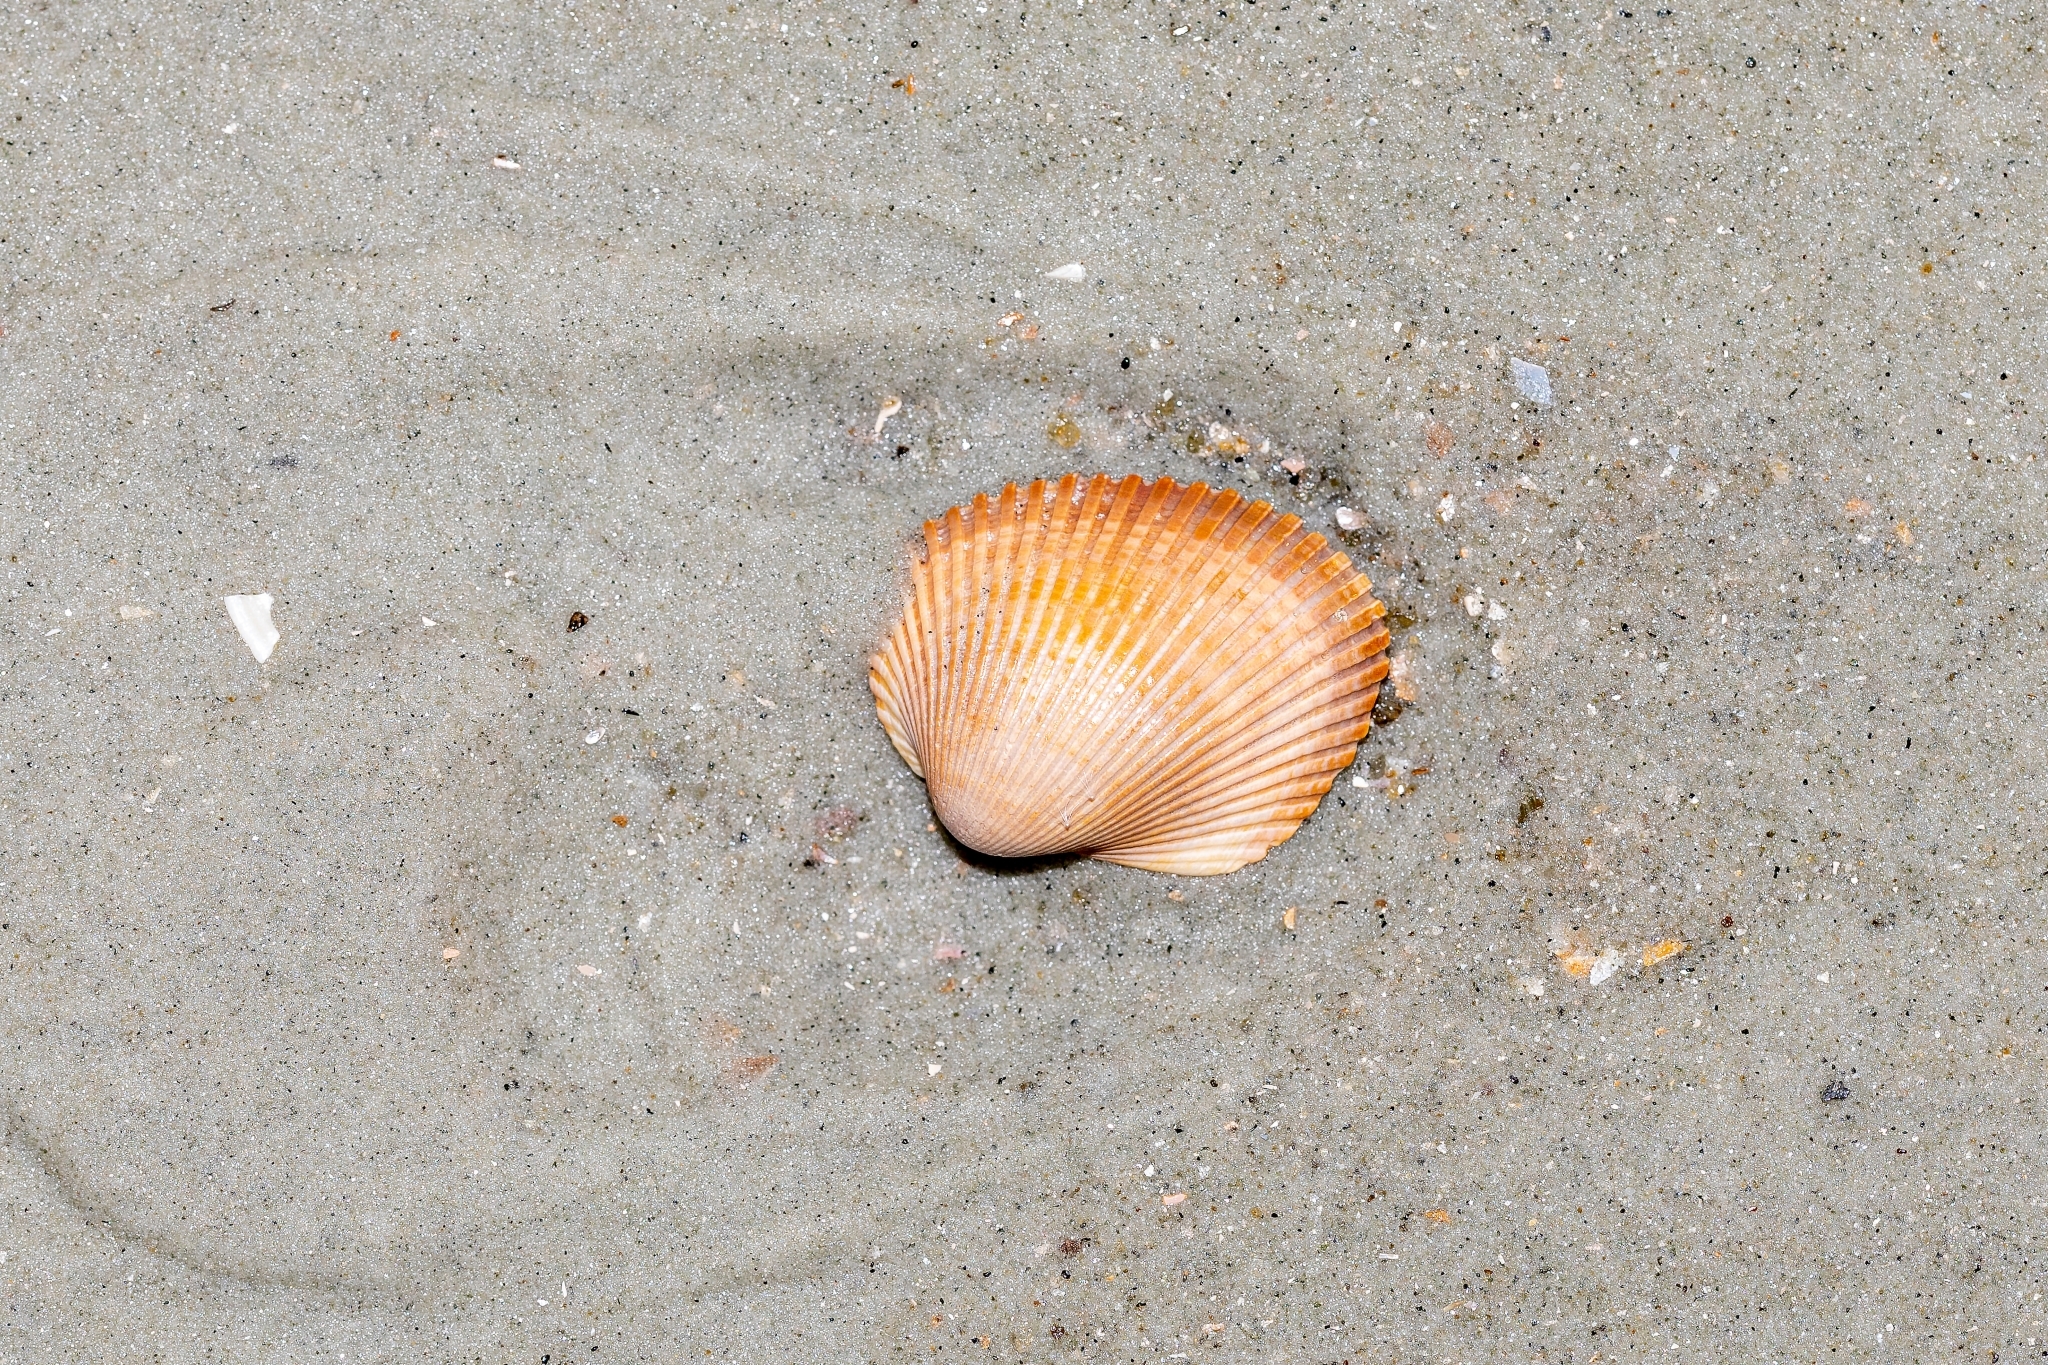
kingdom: Animalia
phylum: Mollusca
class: Bivalvia
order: Arcida
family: Arcidae
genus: Lunarca
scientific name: Lunarca ovalis
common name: Blood ark
